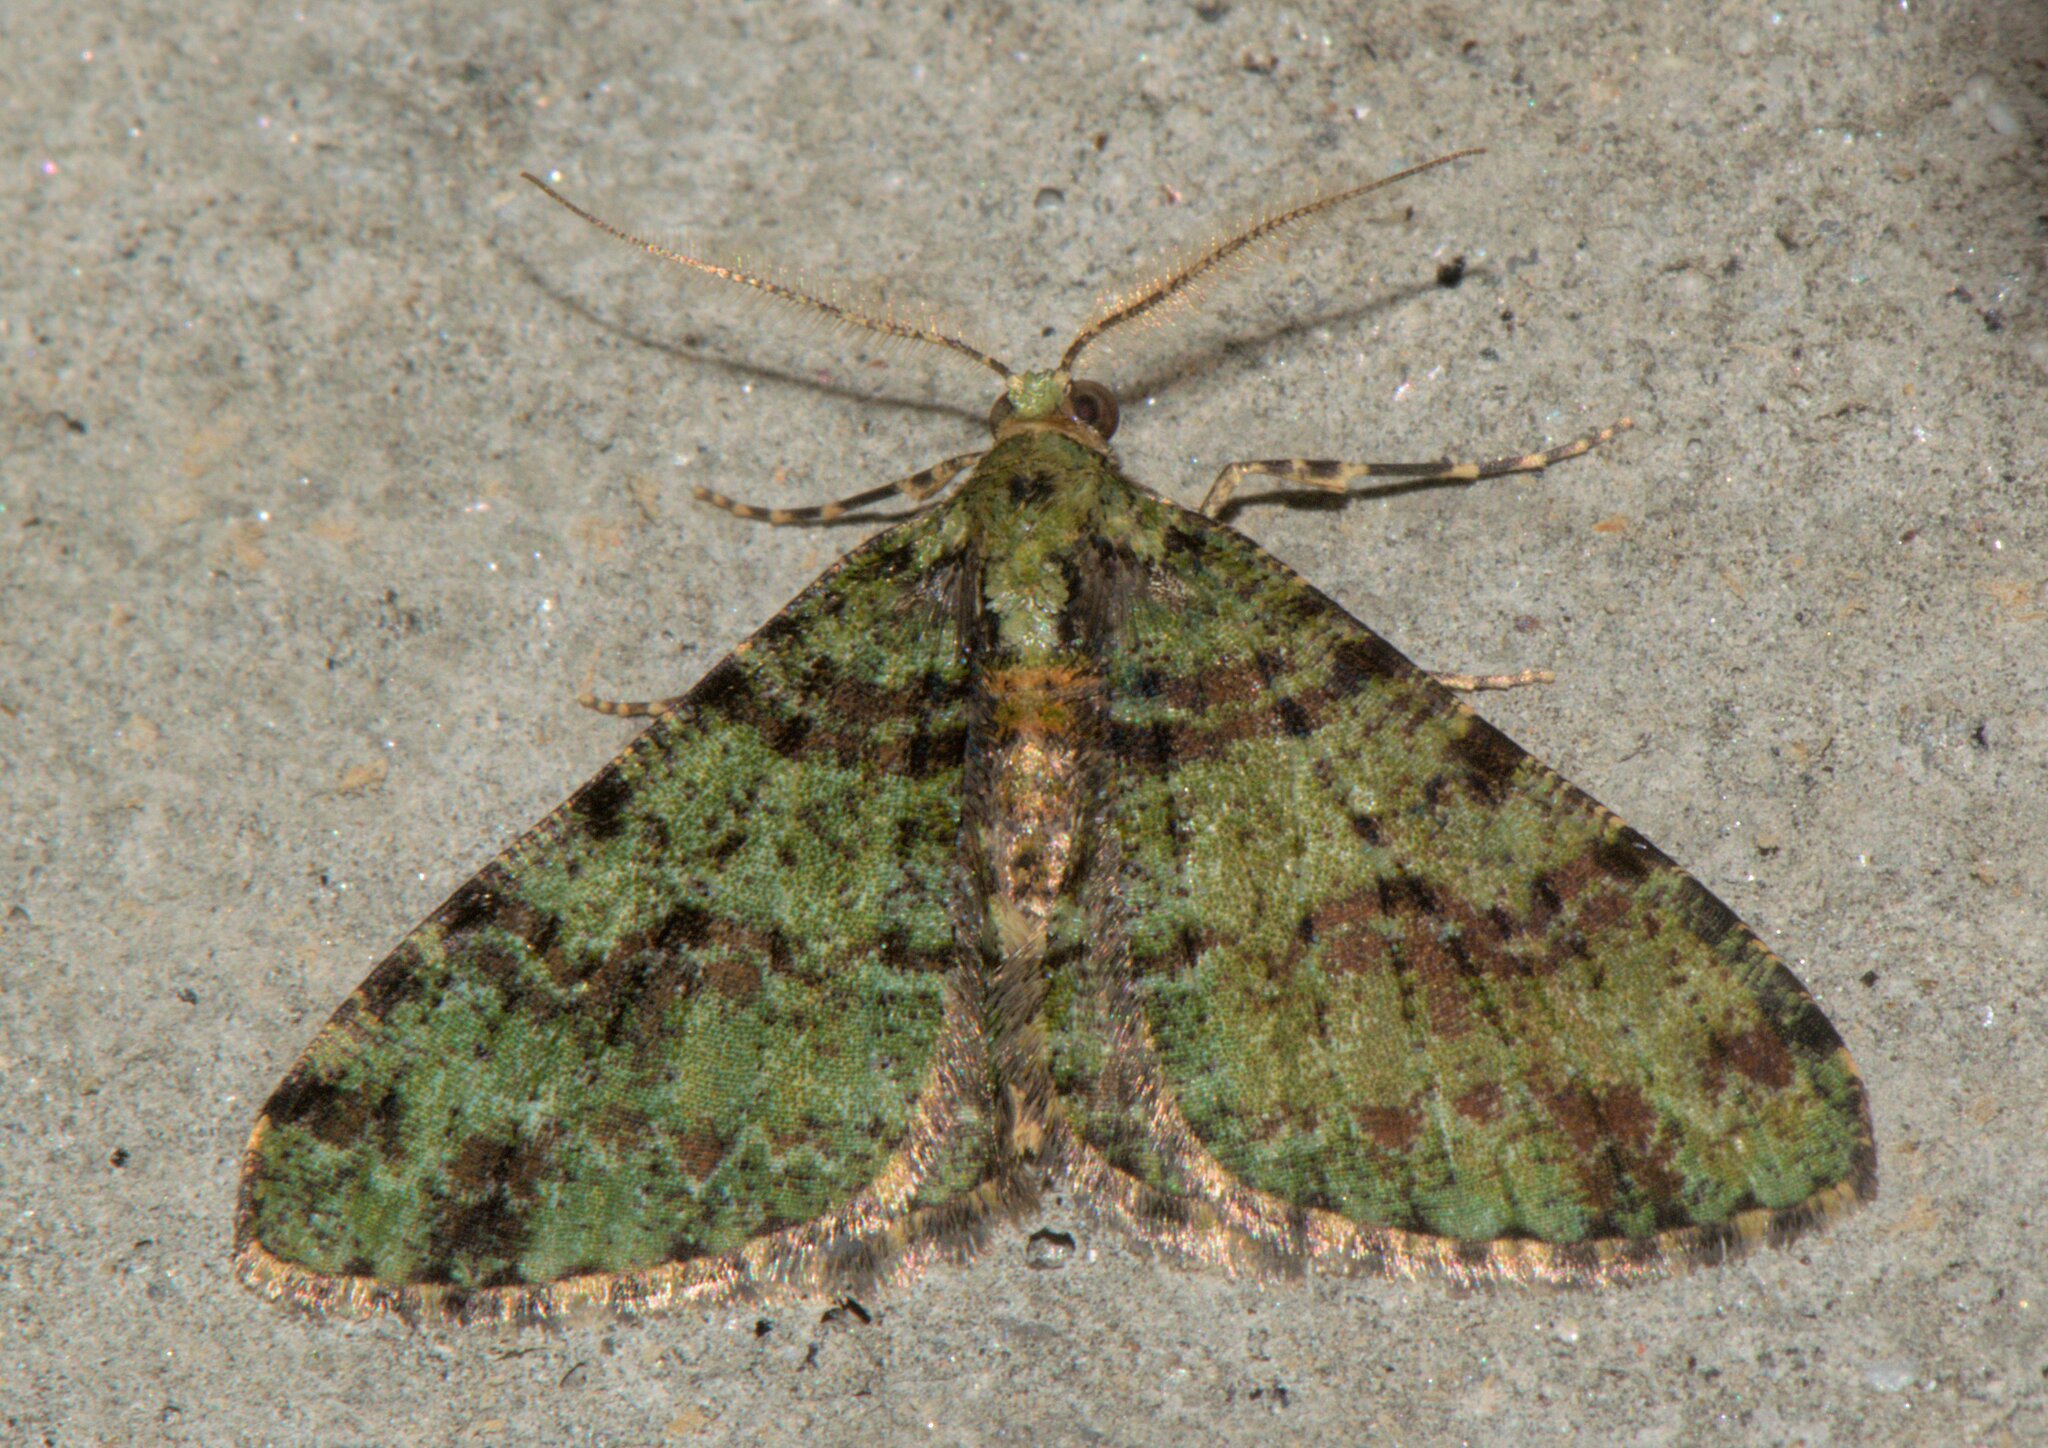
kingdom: Animalia
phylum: Arthropoda
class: Insecta
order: Lepidoptera
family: Geometridae
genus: Myrioblephara
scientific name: Myrioblephara duplexa
